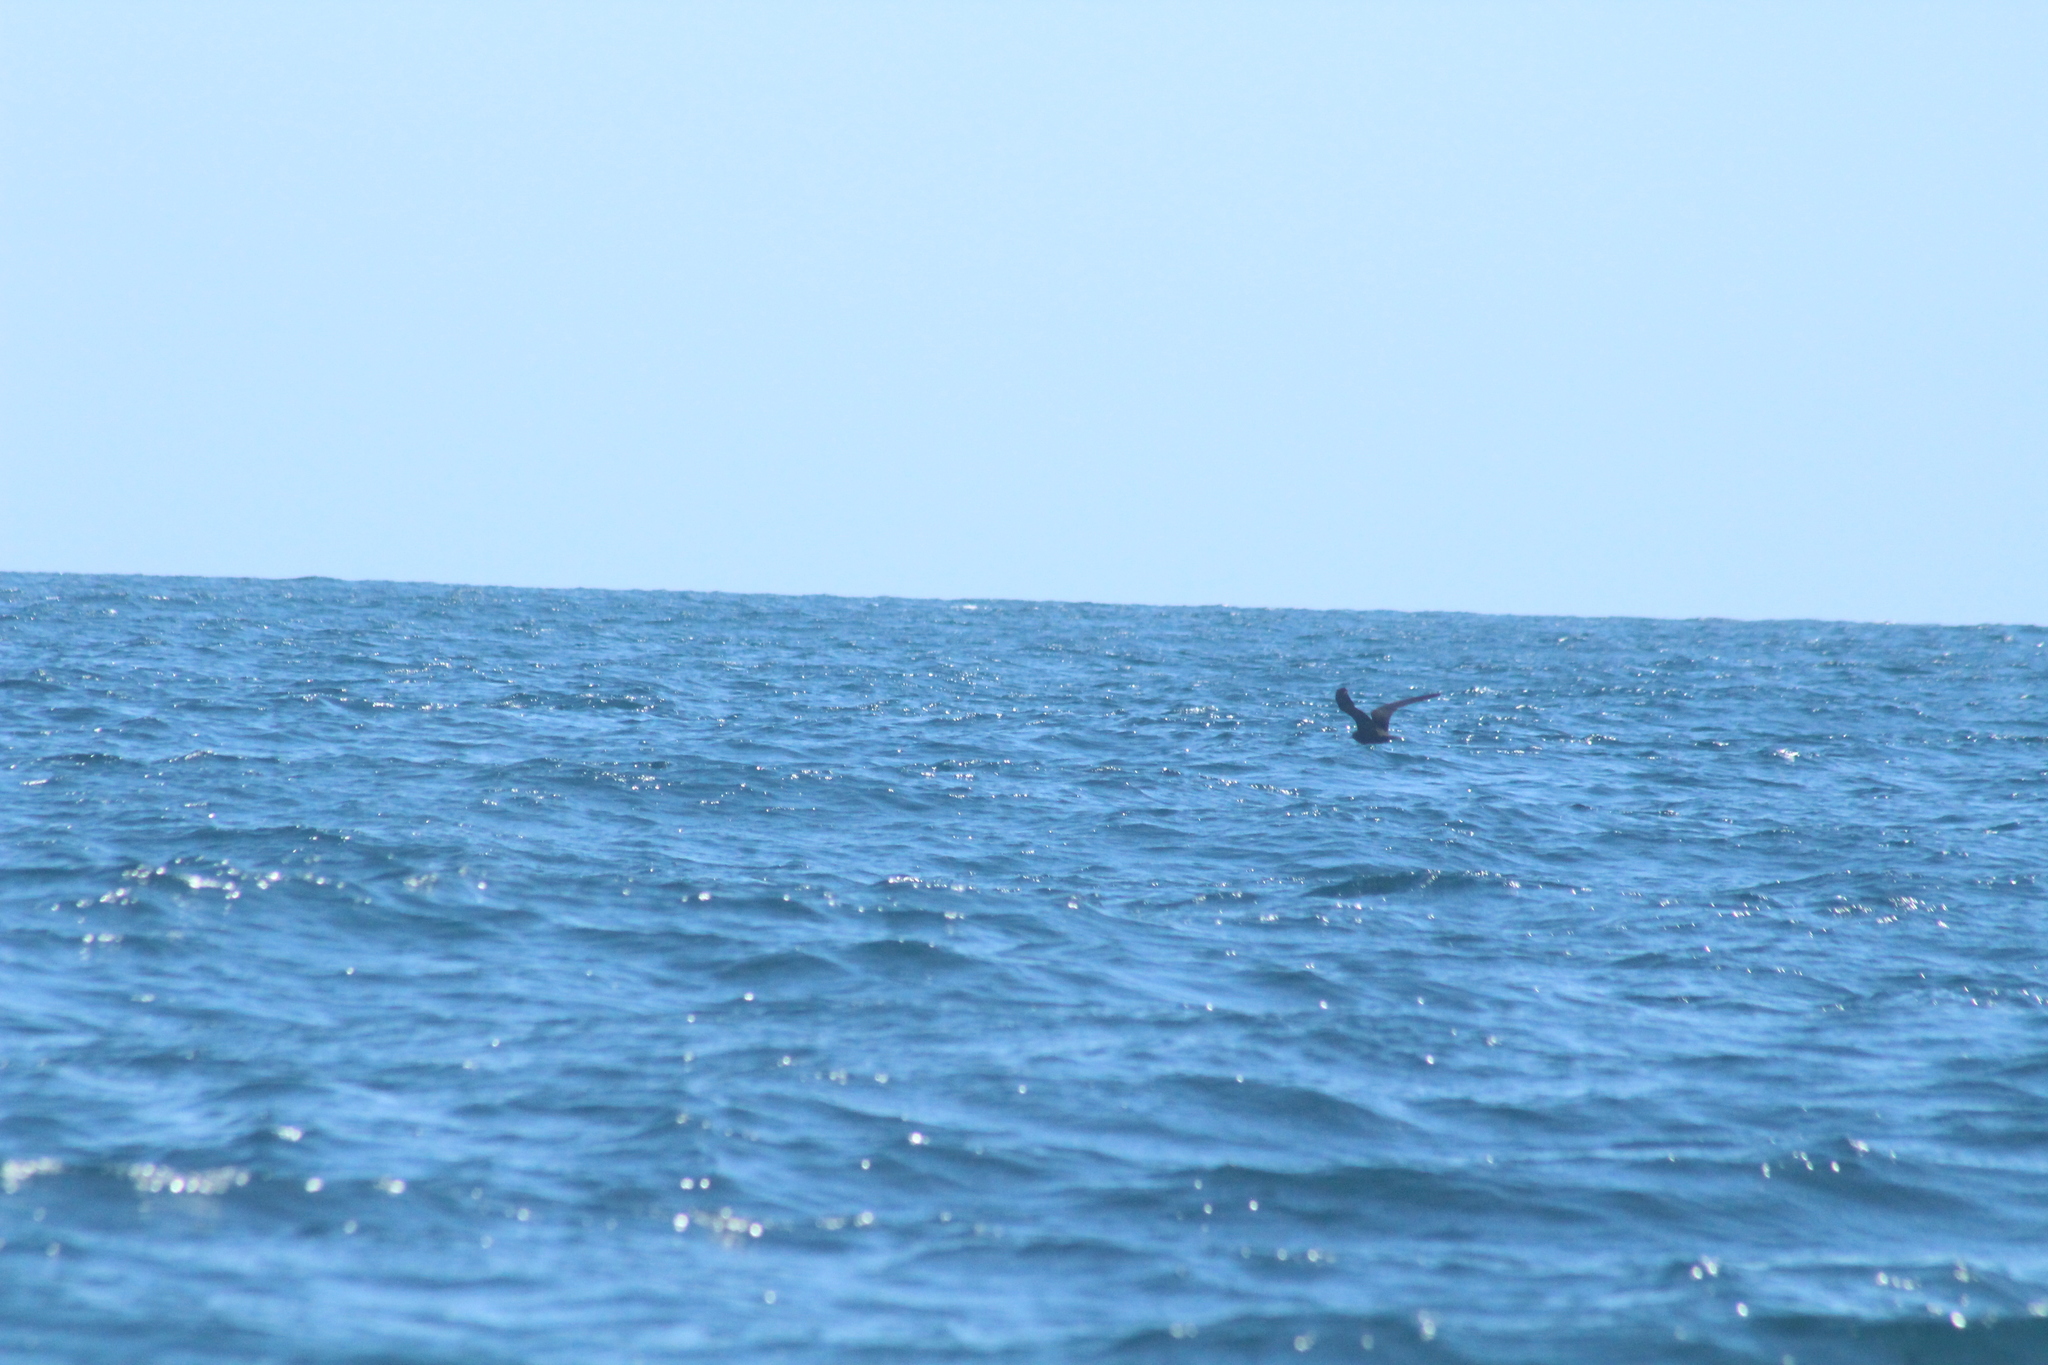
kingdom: Animalia
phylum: Chordata
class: Aves
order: Charadriiformes
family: Laridae
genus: Anous
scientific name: Anous stolidus
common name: Brown noddy
